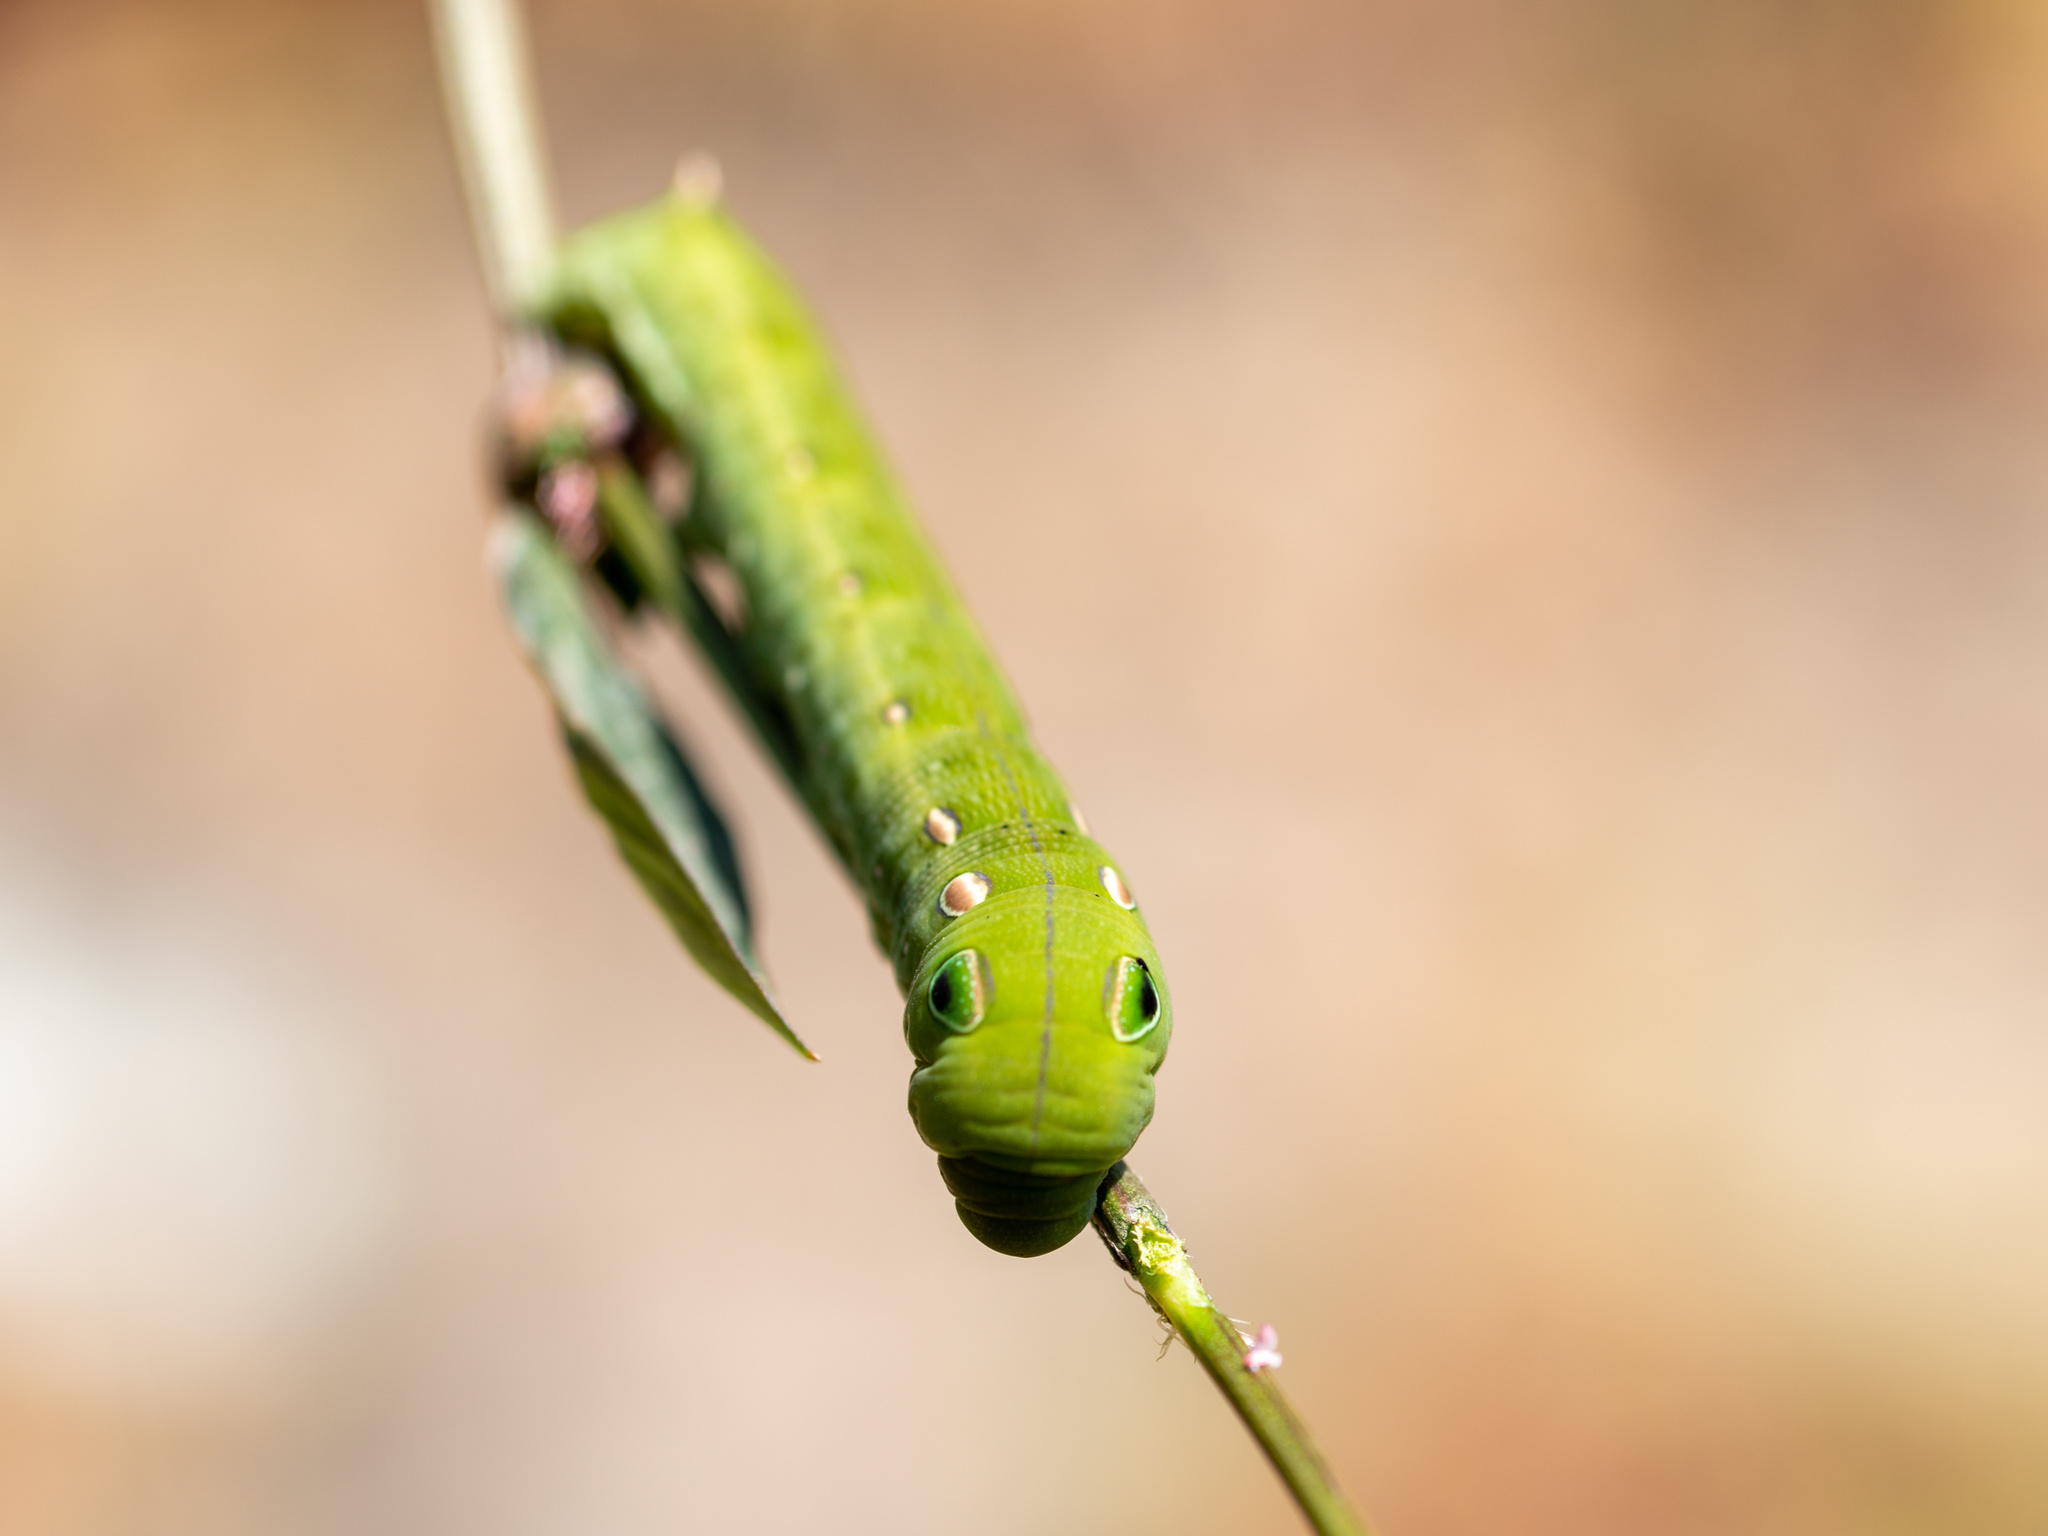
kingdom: Animalia
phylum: Arthropoda
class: Insecta
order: Lepidoptera
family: Sphingidae
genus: Hippotion
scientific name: Hippotion rosetta
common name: Vine hawk moth
